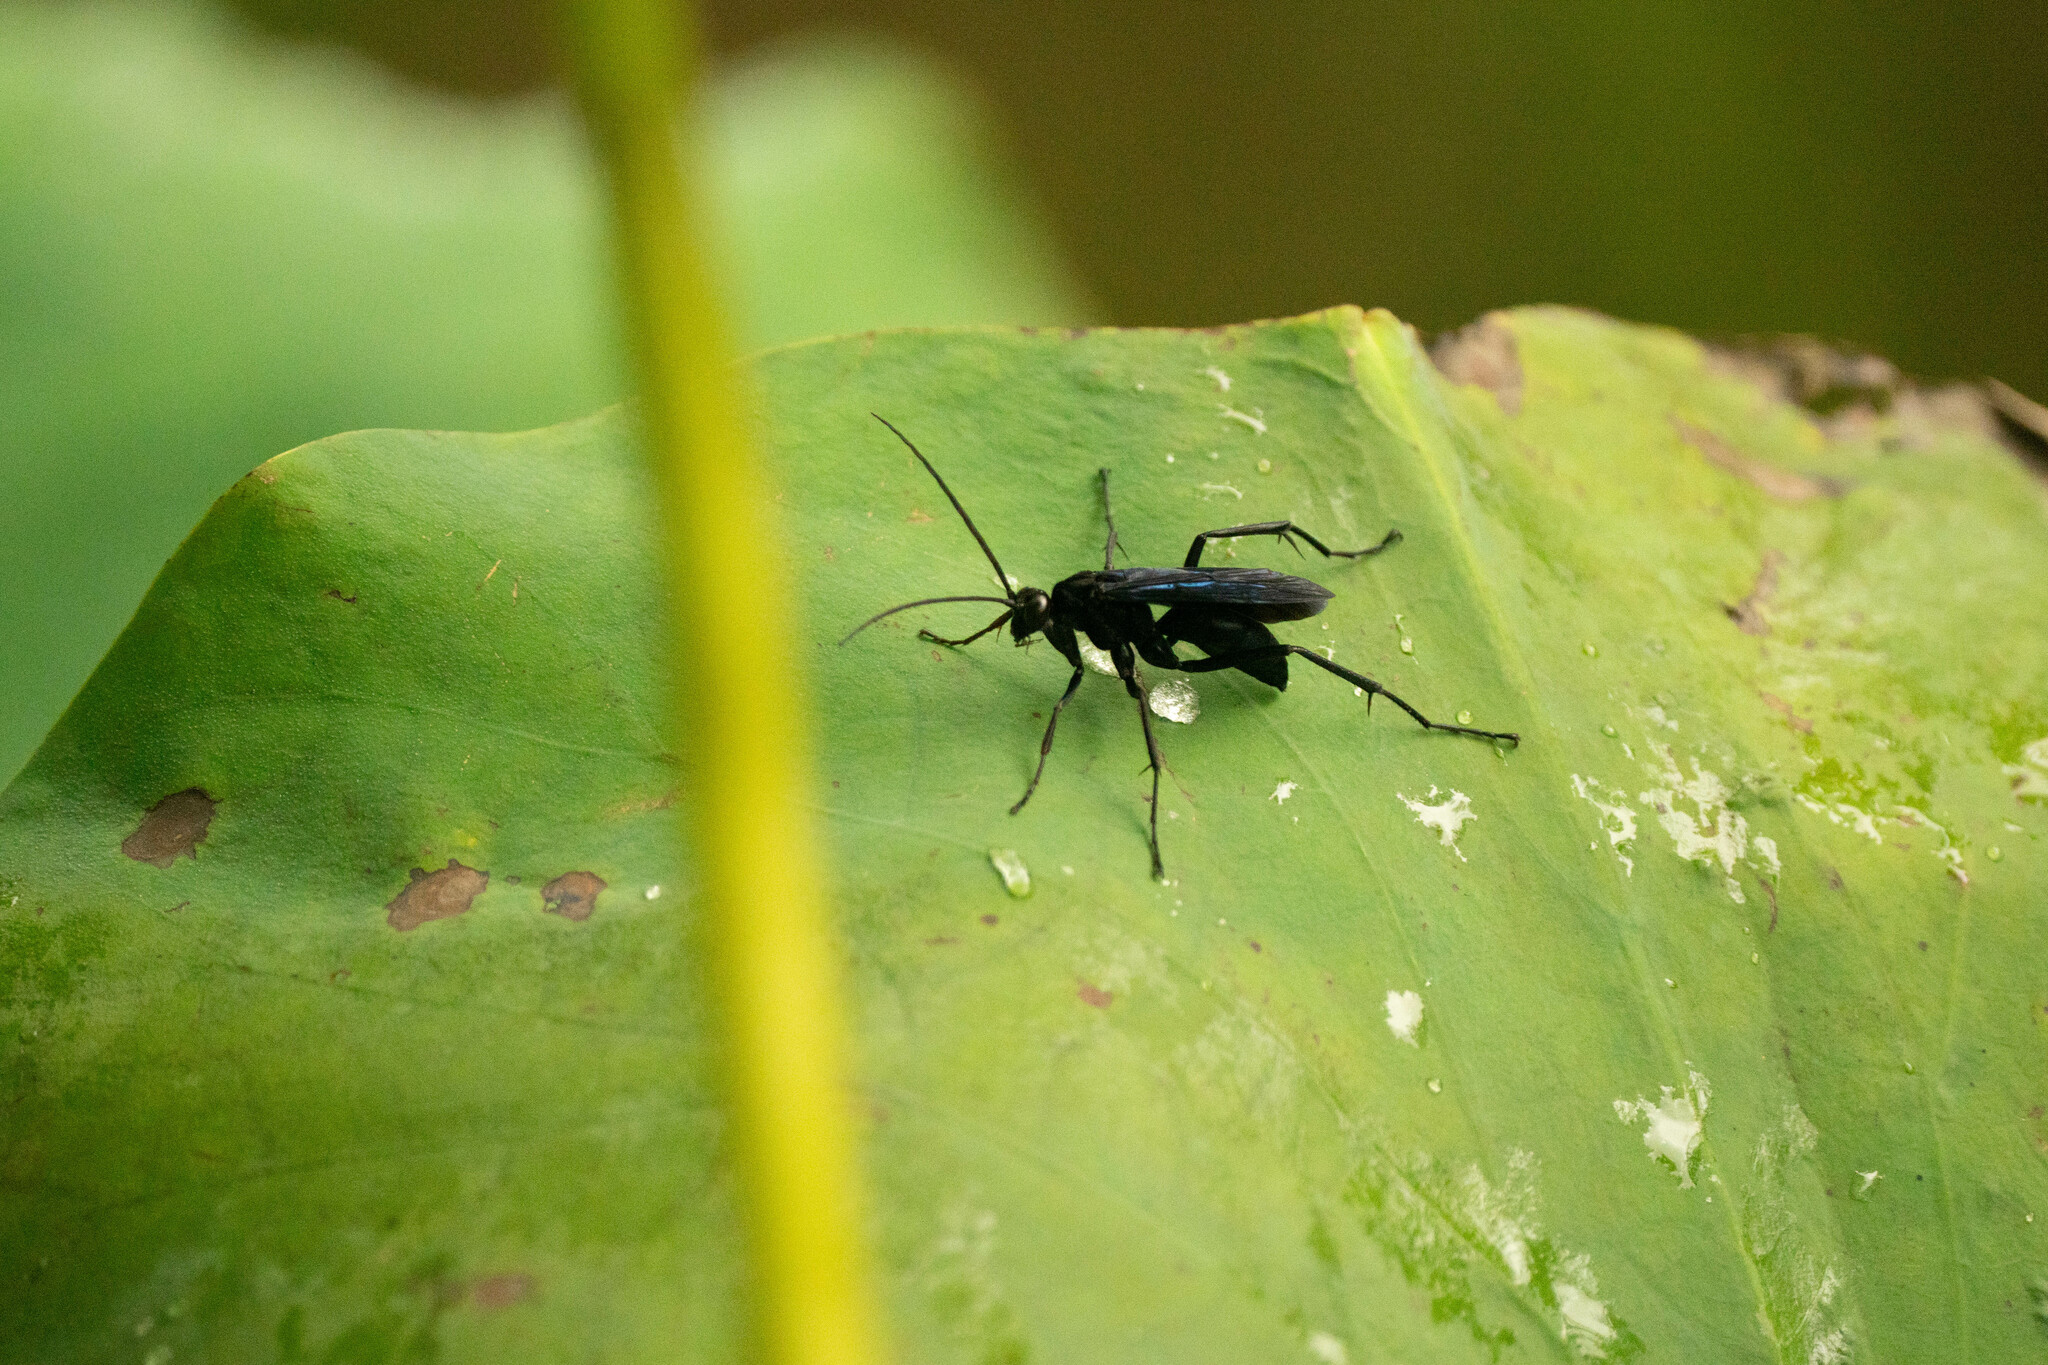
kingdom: Animalia
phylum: Arthropoda
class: Insecta
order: Hymenoptera
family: Pompilidae
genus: Cyphononyx
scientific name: Cyphononyx bipartitus
